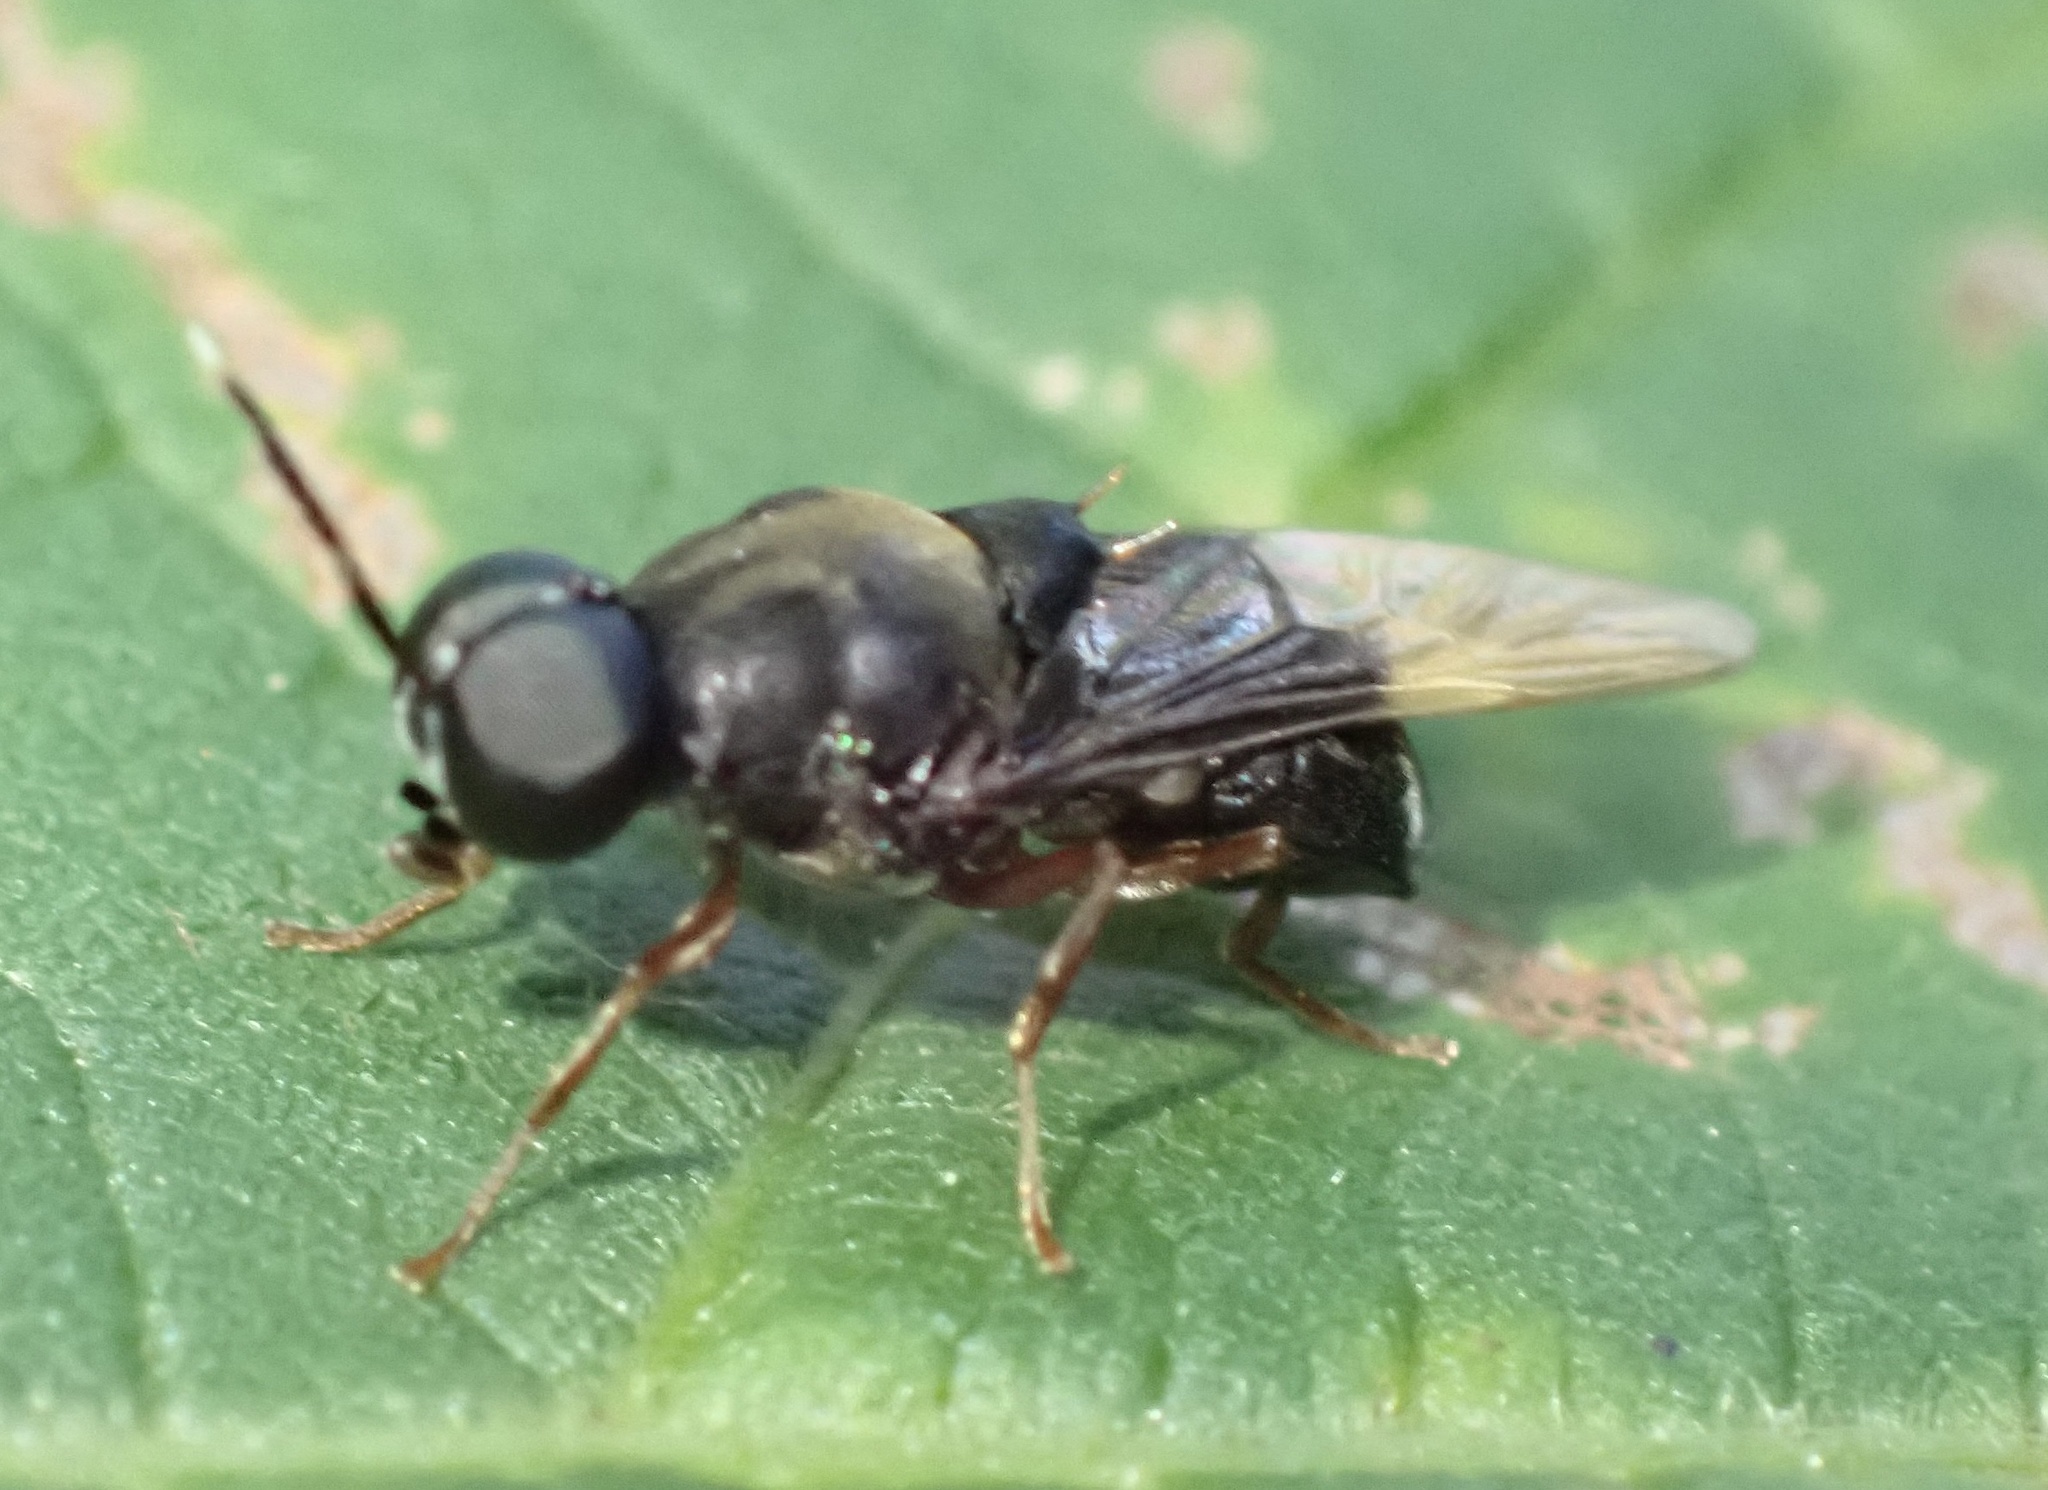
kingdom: Animalia
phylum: Arthropoda
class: Insecta
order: Diptera
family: Stratiomyidae
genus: Isomerocera
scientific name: Isomerocera quadrilineata
